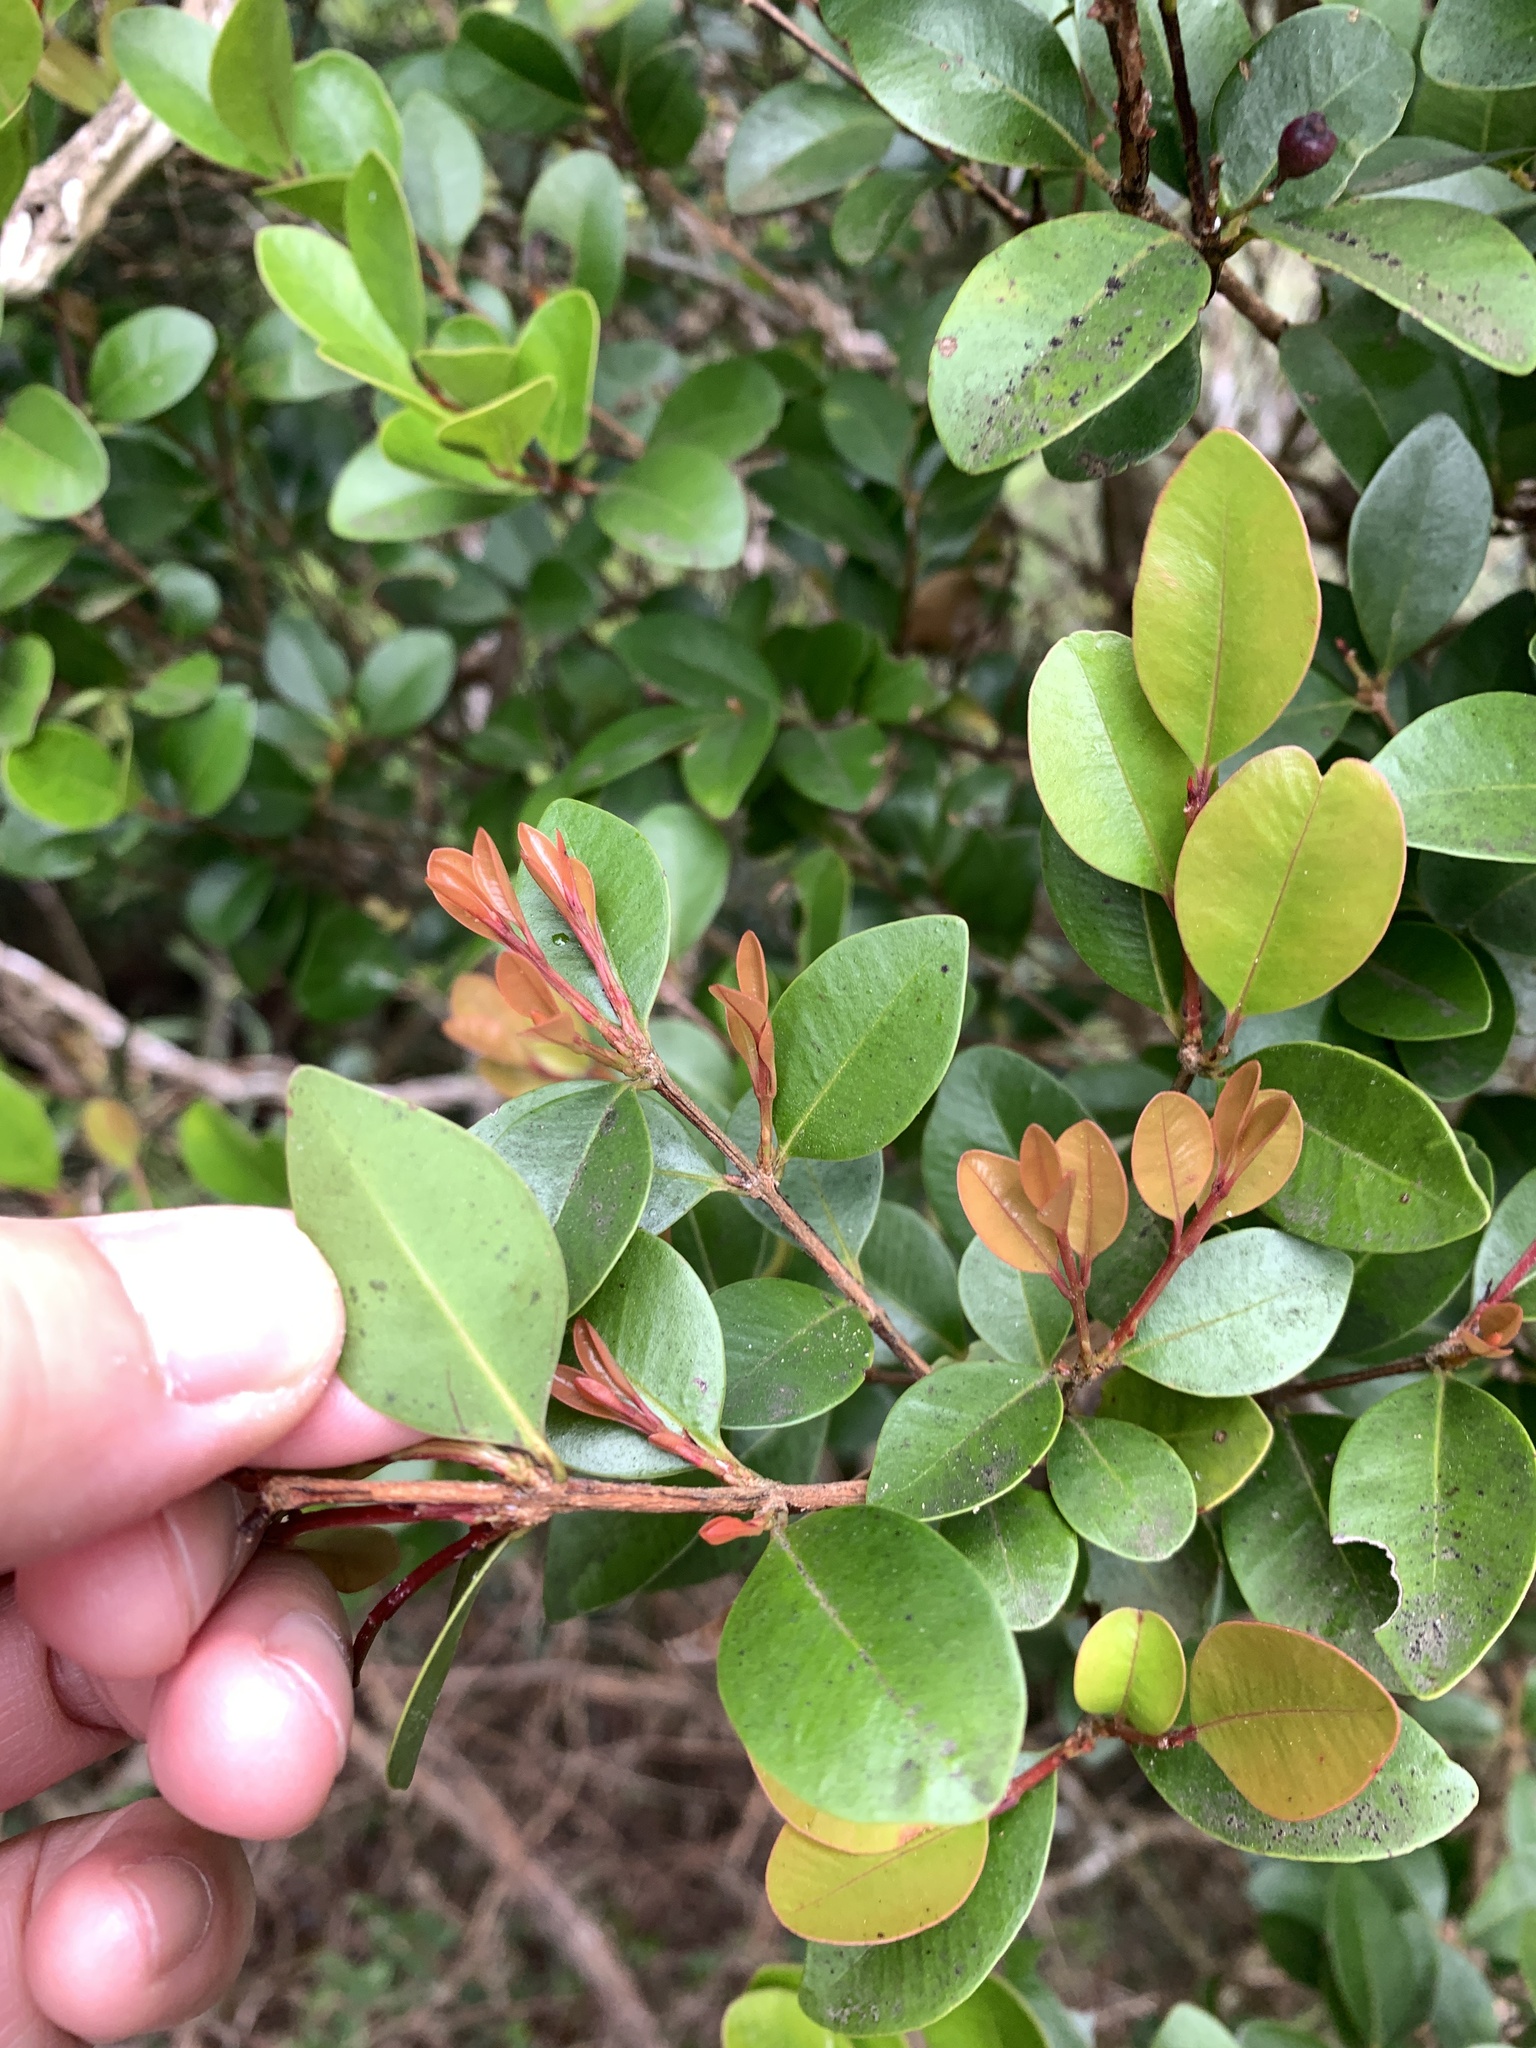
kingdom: Plantae
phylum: Tracheophyta
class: Magnoliopsida
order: Myrtales
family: Myrtaceae
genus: Syzygium
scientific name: Syzygium elliptifolium
